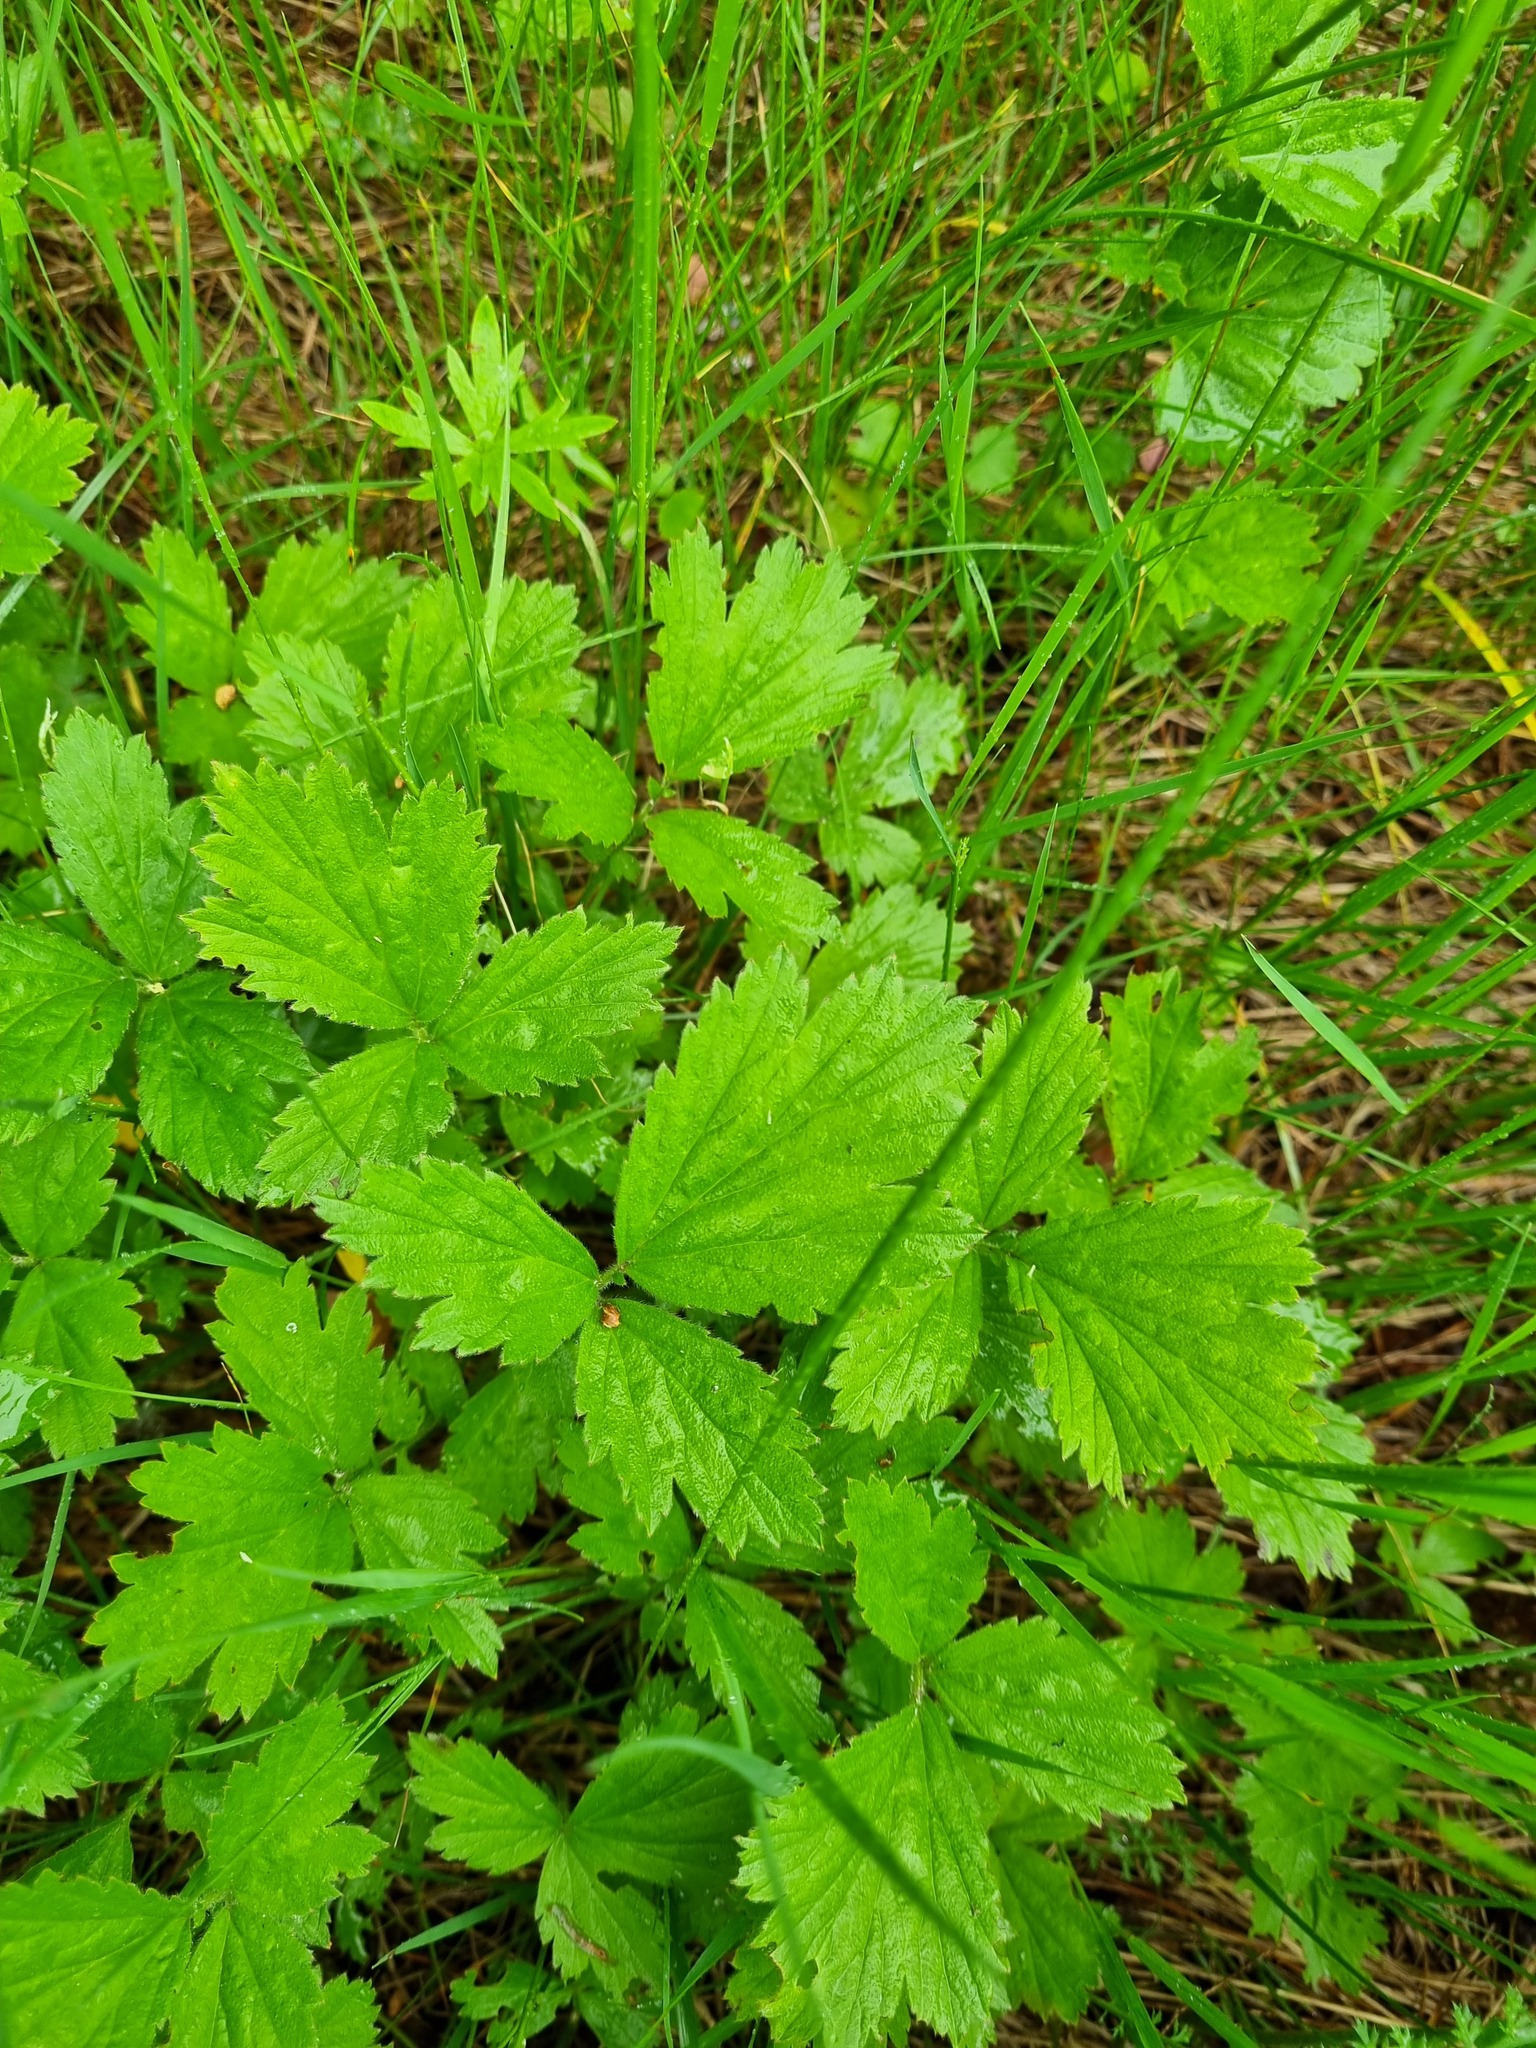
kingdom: Plantae
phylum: Tracheophyta
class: Magnoliopsida
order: Rosales
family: Rosaceae
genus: Geum
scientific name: Geum rivale
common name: Water avens
